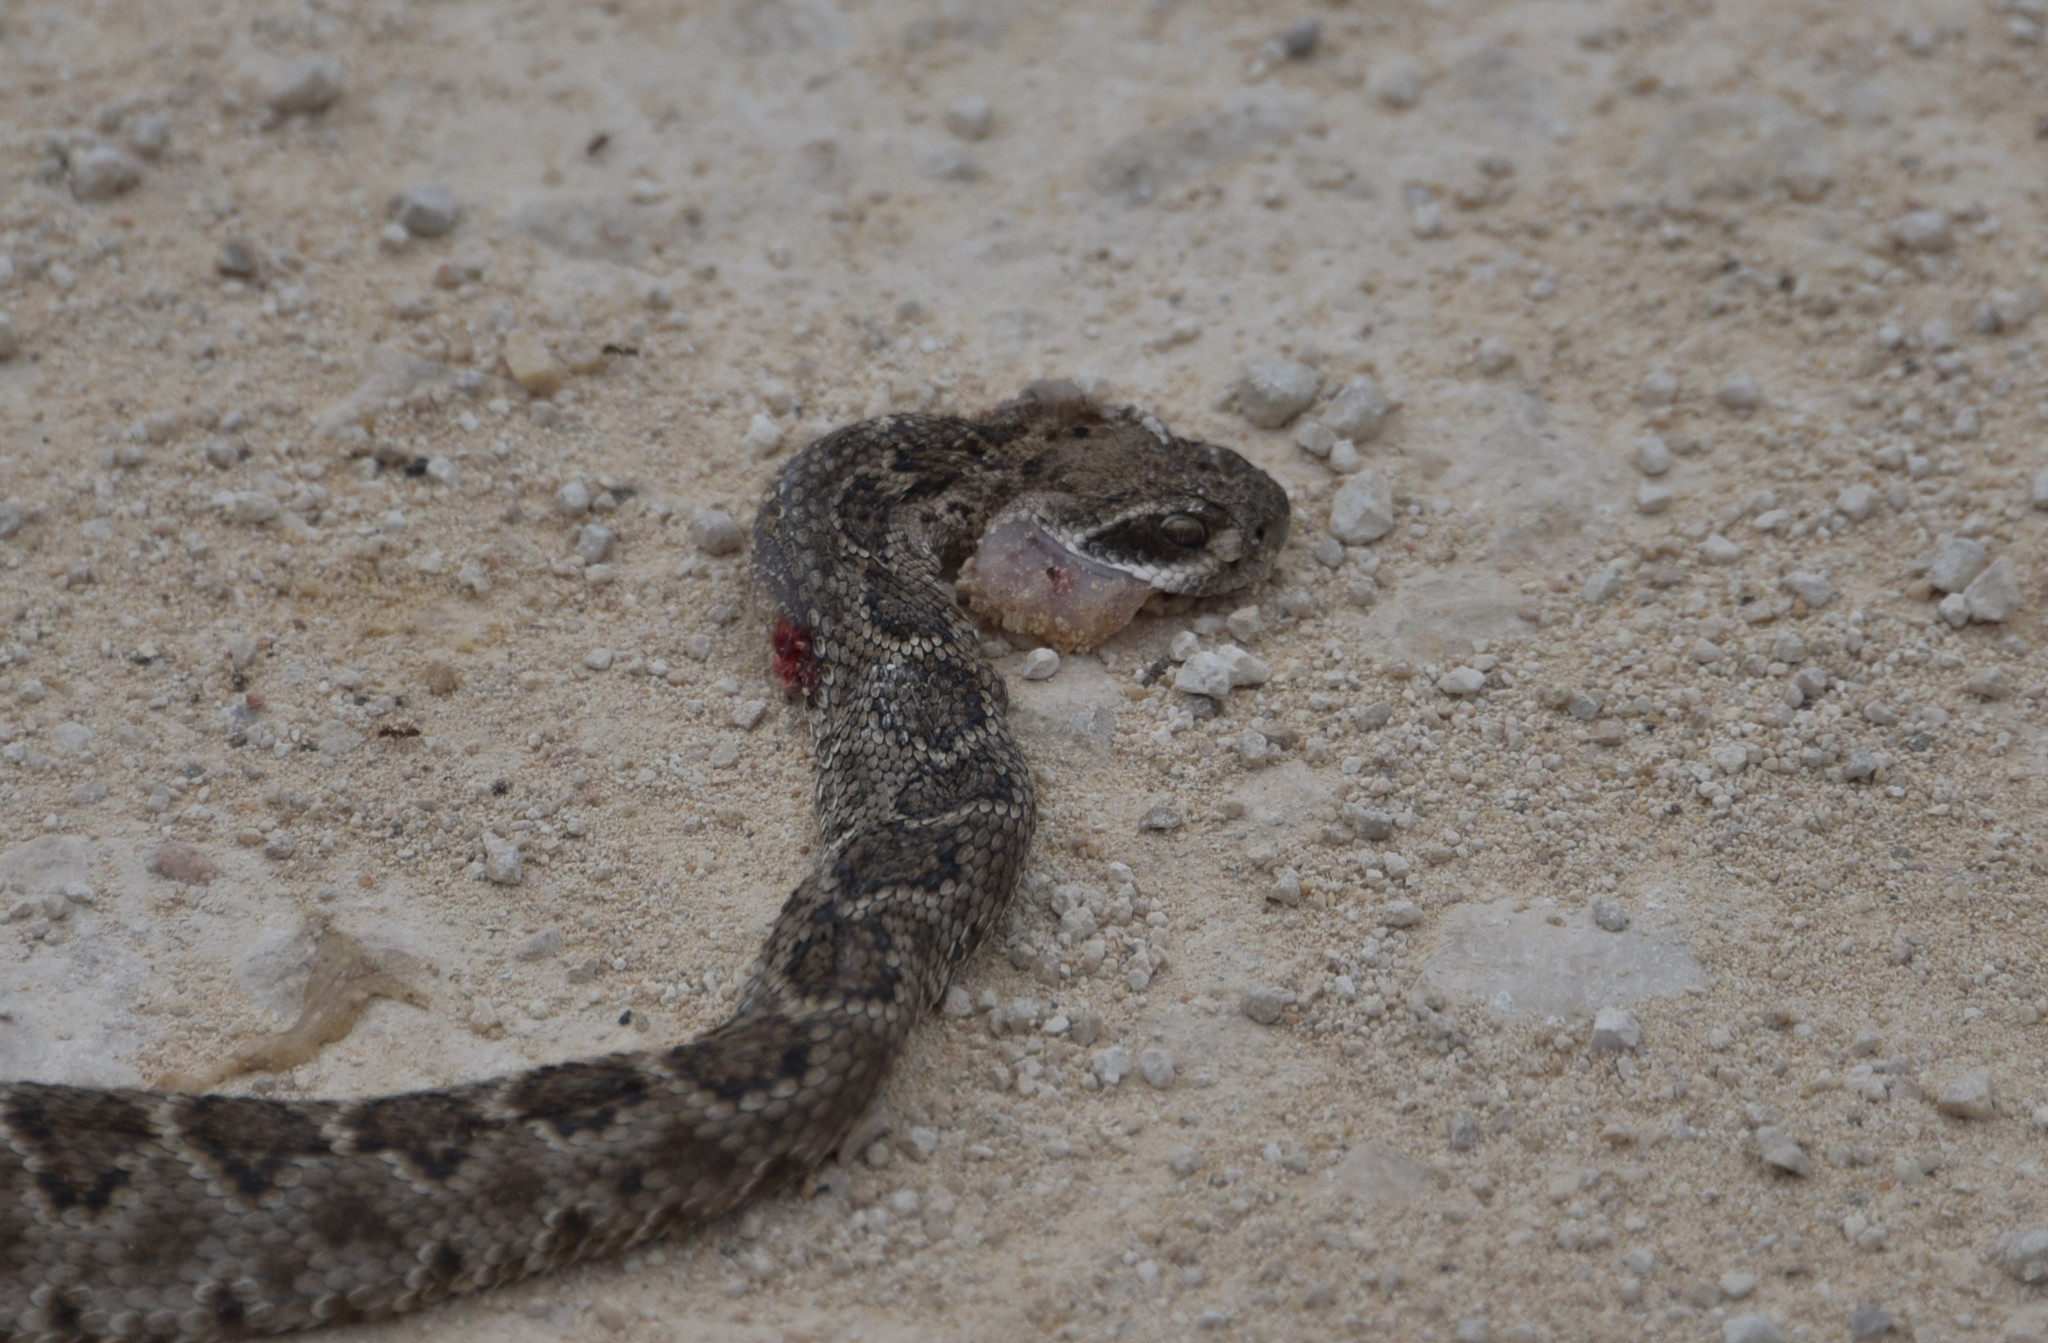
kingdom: Animalia
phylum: Chordata
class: Squamata
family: Viperidae
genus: Crotalus
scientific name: Crotalus atrox
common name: Western diamond-backed rattlesnake
